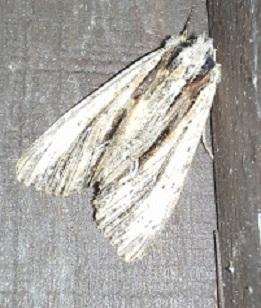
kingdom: Animalia
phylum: Arthropoda
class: Insecta
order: Lepidoptera
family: Noctuidae
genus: Apamea
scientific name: Apamea
